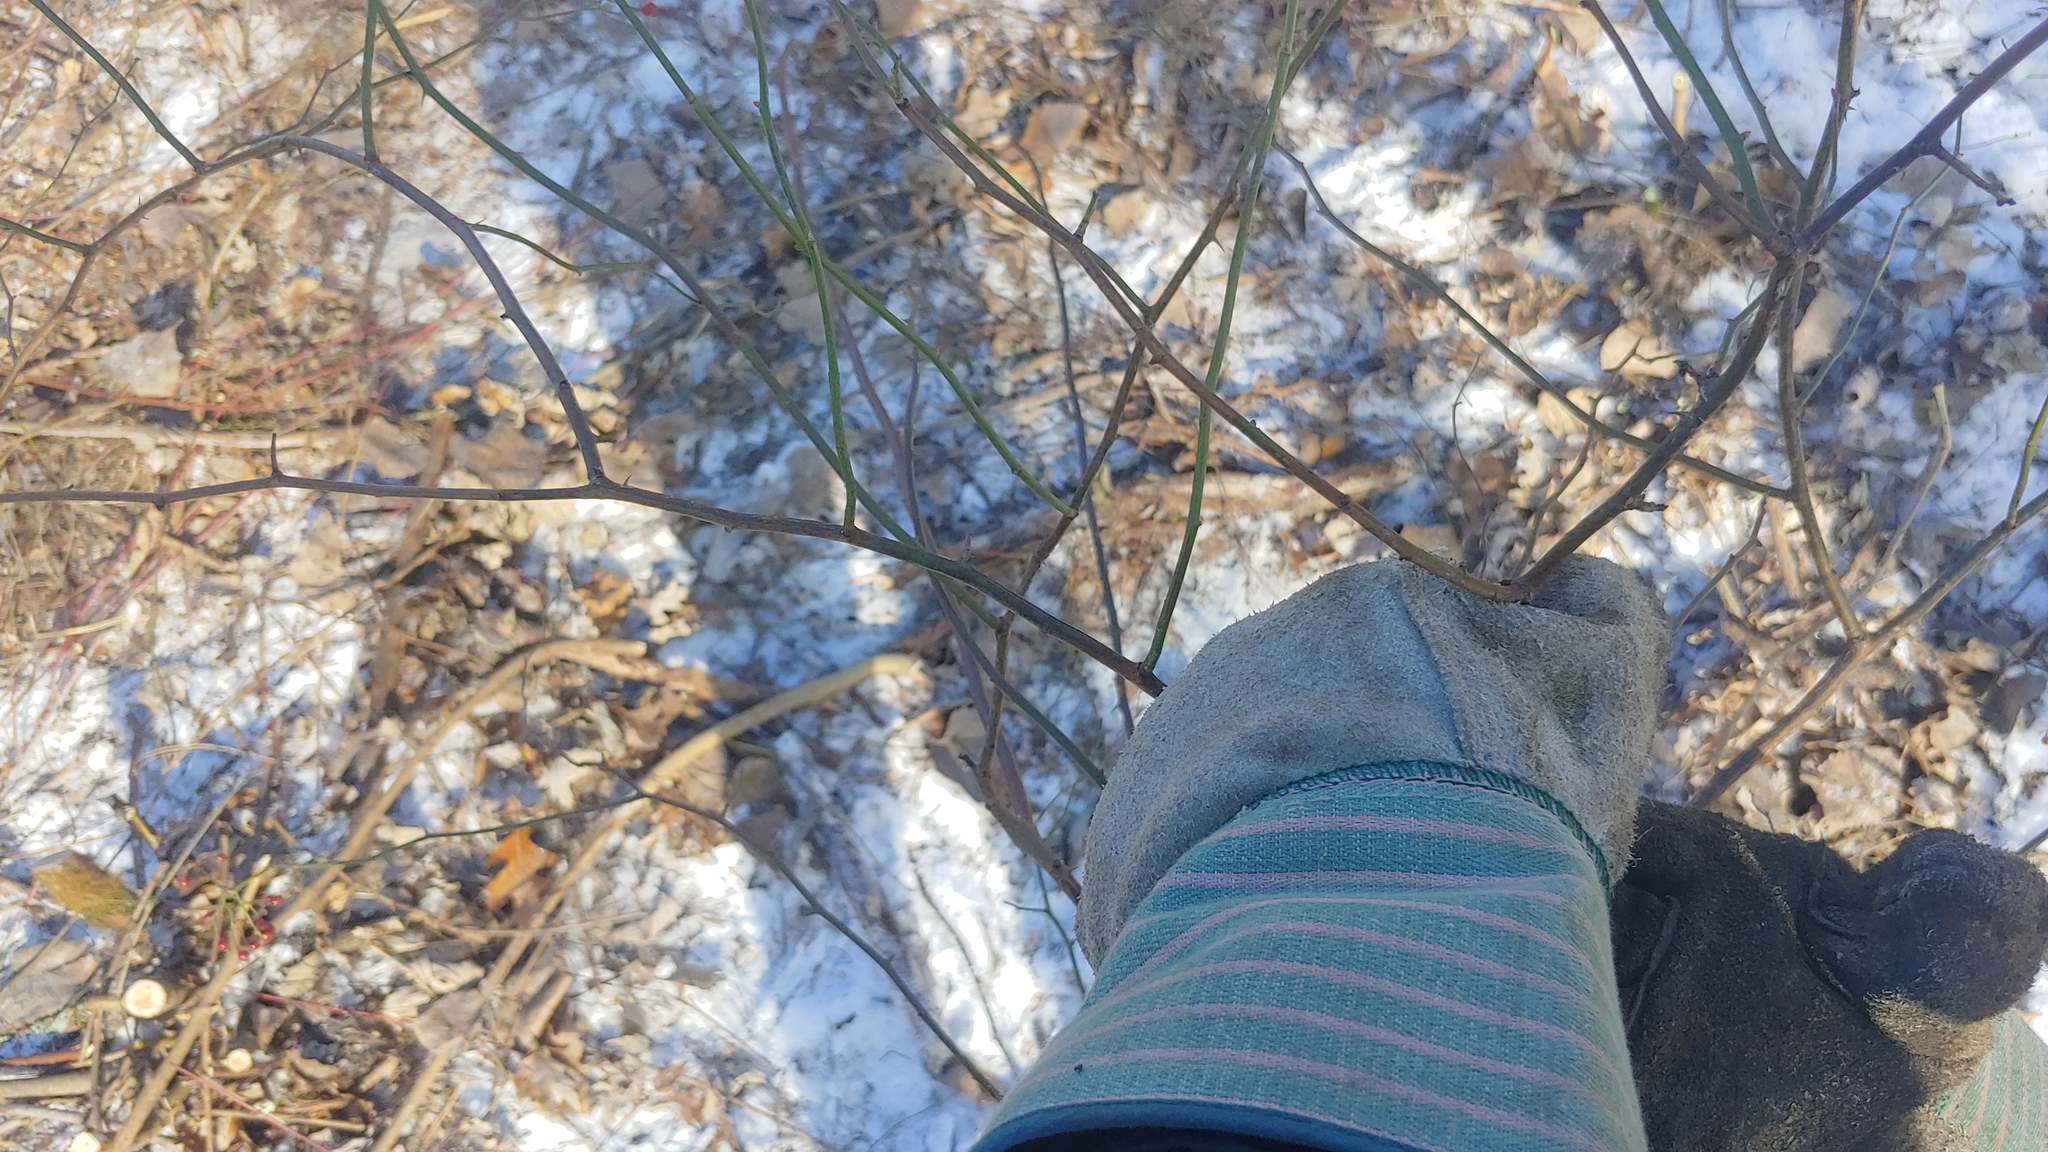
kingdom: Plantae
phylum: Tracheophyta
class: Magnoliopsida
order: Rosales
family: Rosaceae
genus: Rosa
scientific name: Rosa multiflora
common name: Multiflora rose
